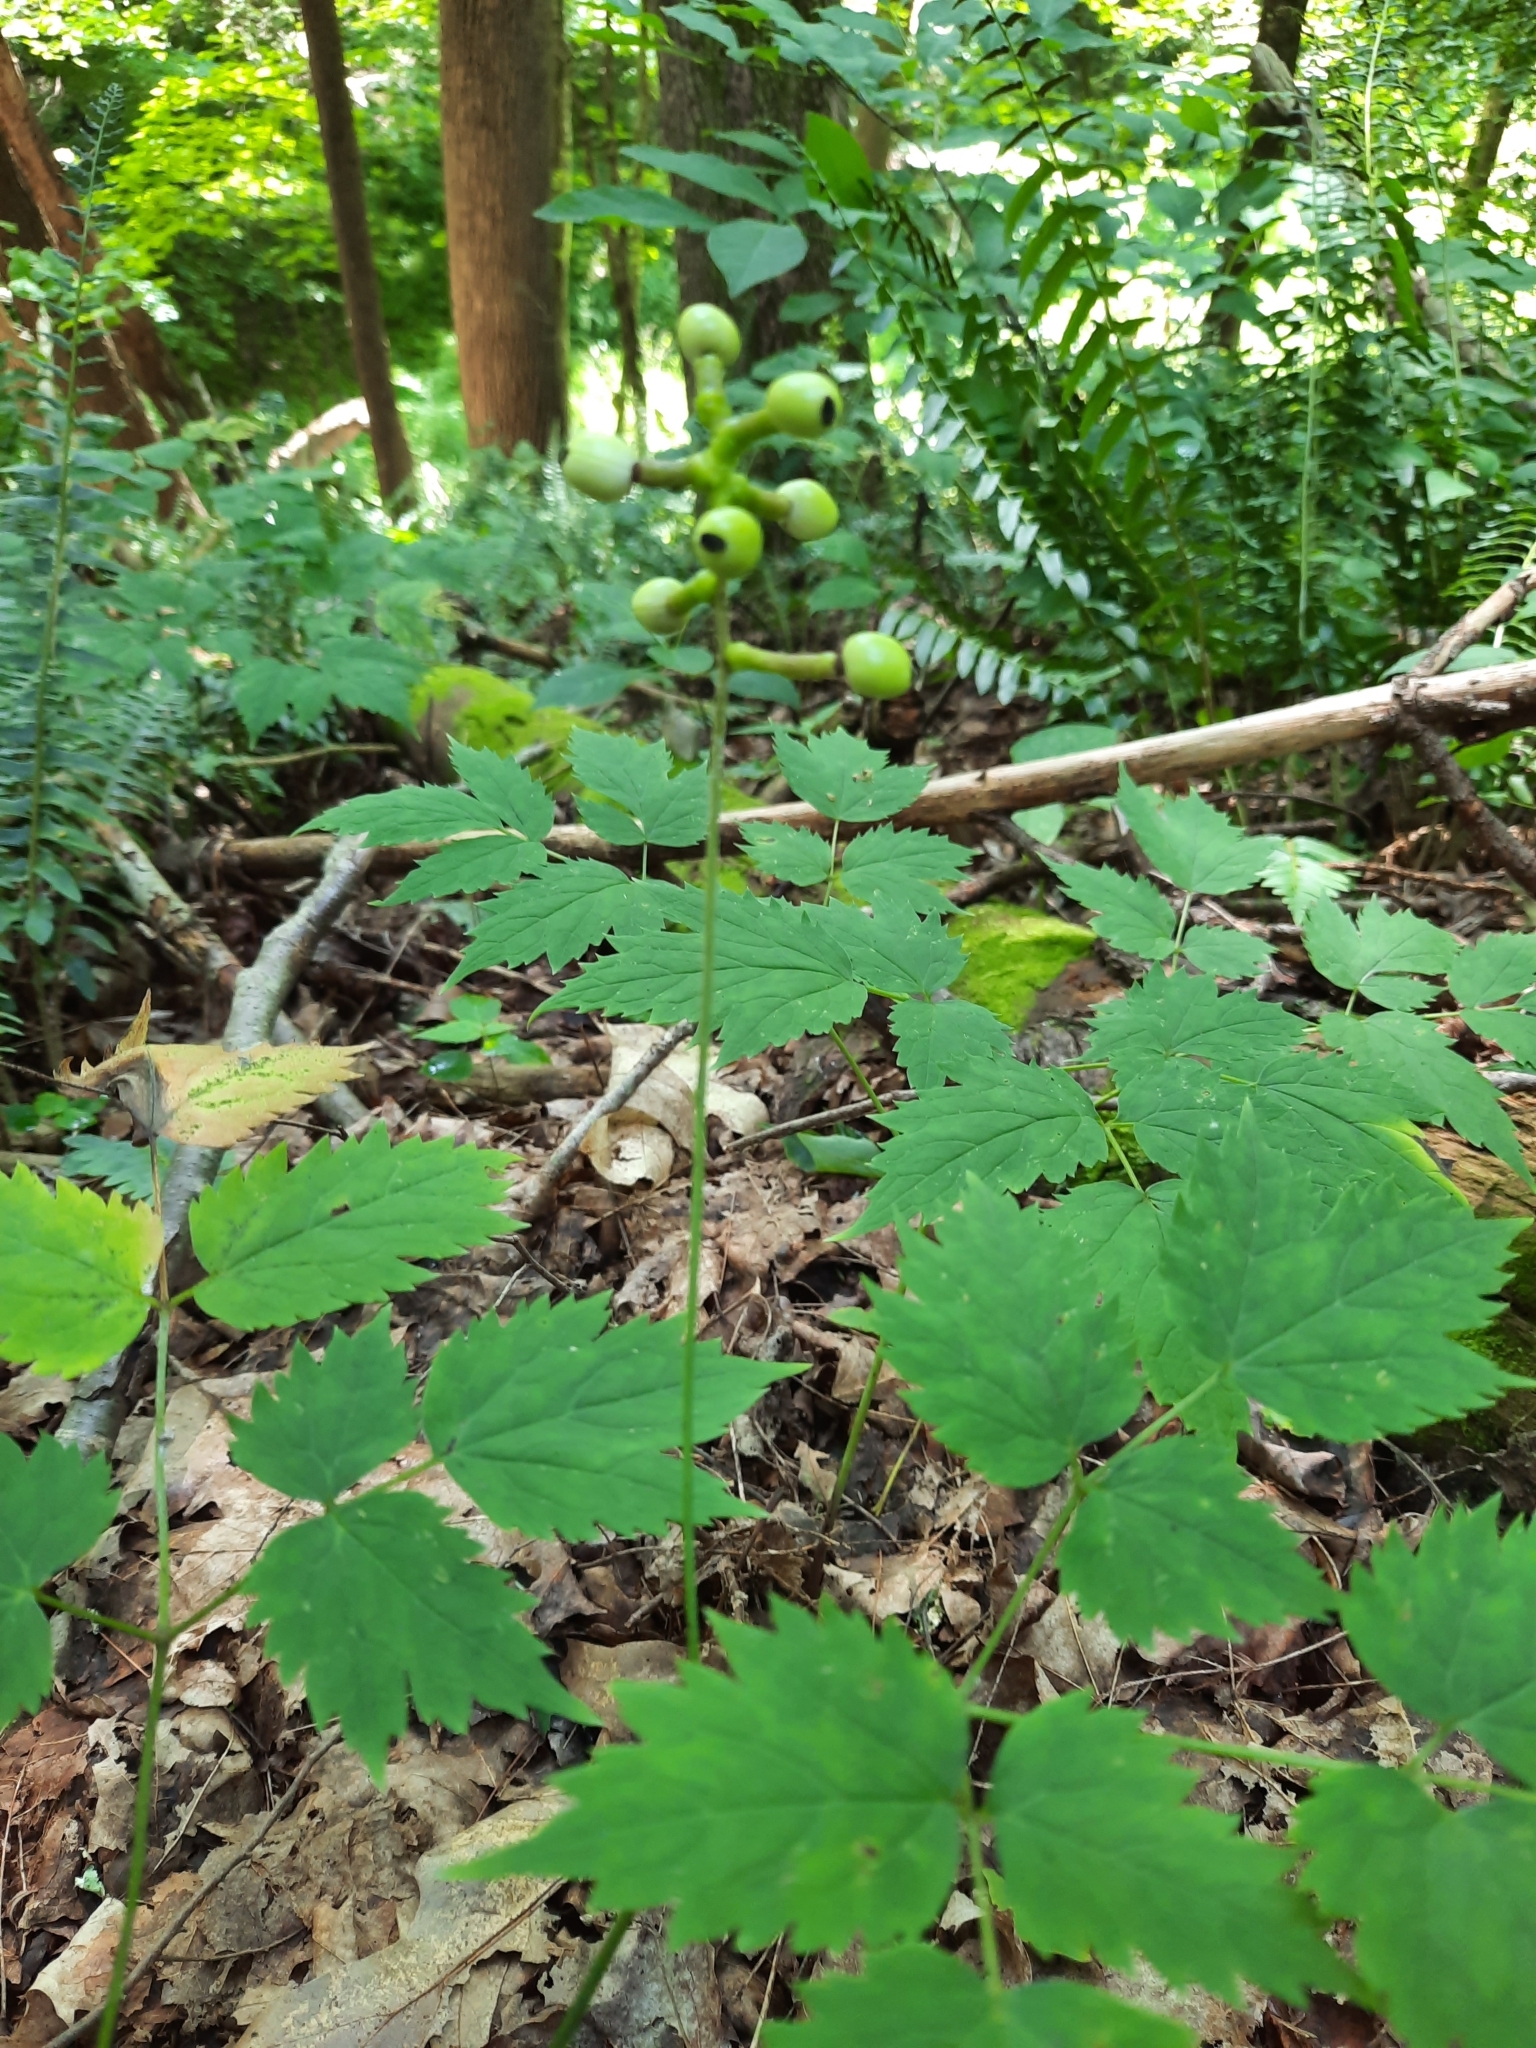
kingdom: Plantae
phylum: Tracheophyta
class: Magnoliopsida
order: Ranunculales
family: Ranunculaceae
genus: Actaea
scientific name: Actaea pachypoda
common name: Doll's-eyes
